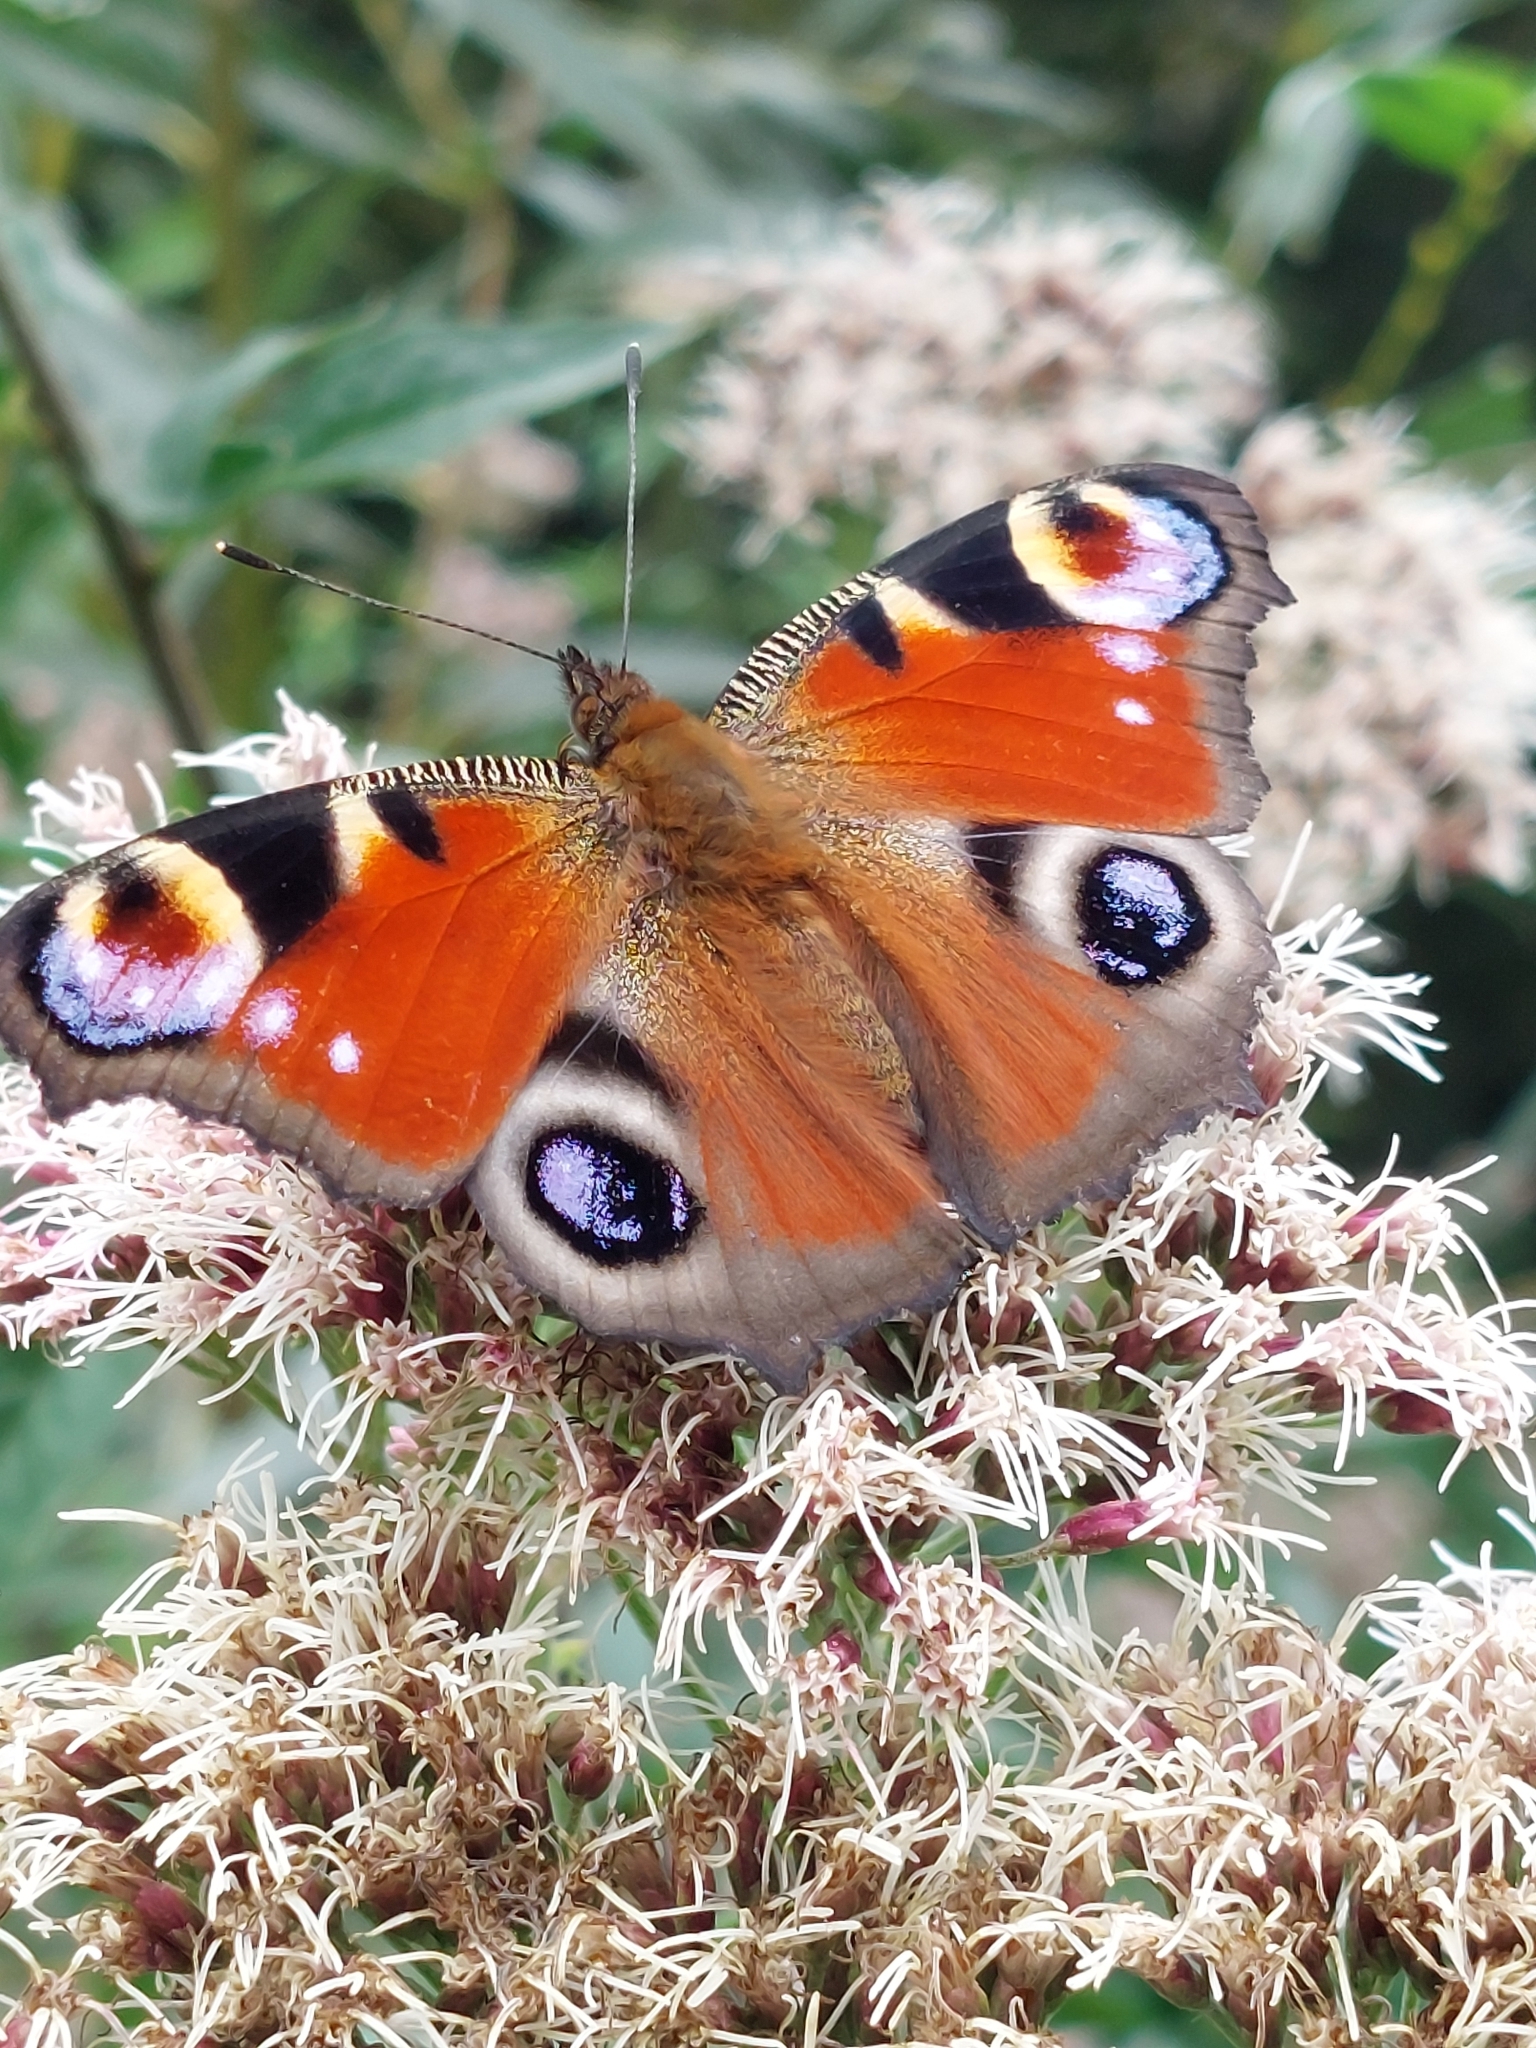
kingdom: Animalia
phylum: Arthropoda
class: Insecta
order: Lepidoptera
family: Nymphalidae
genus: Aglais
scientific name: Aglais io
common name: Peacock
